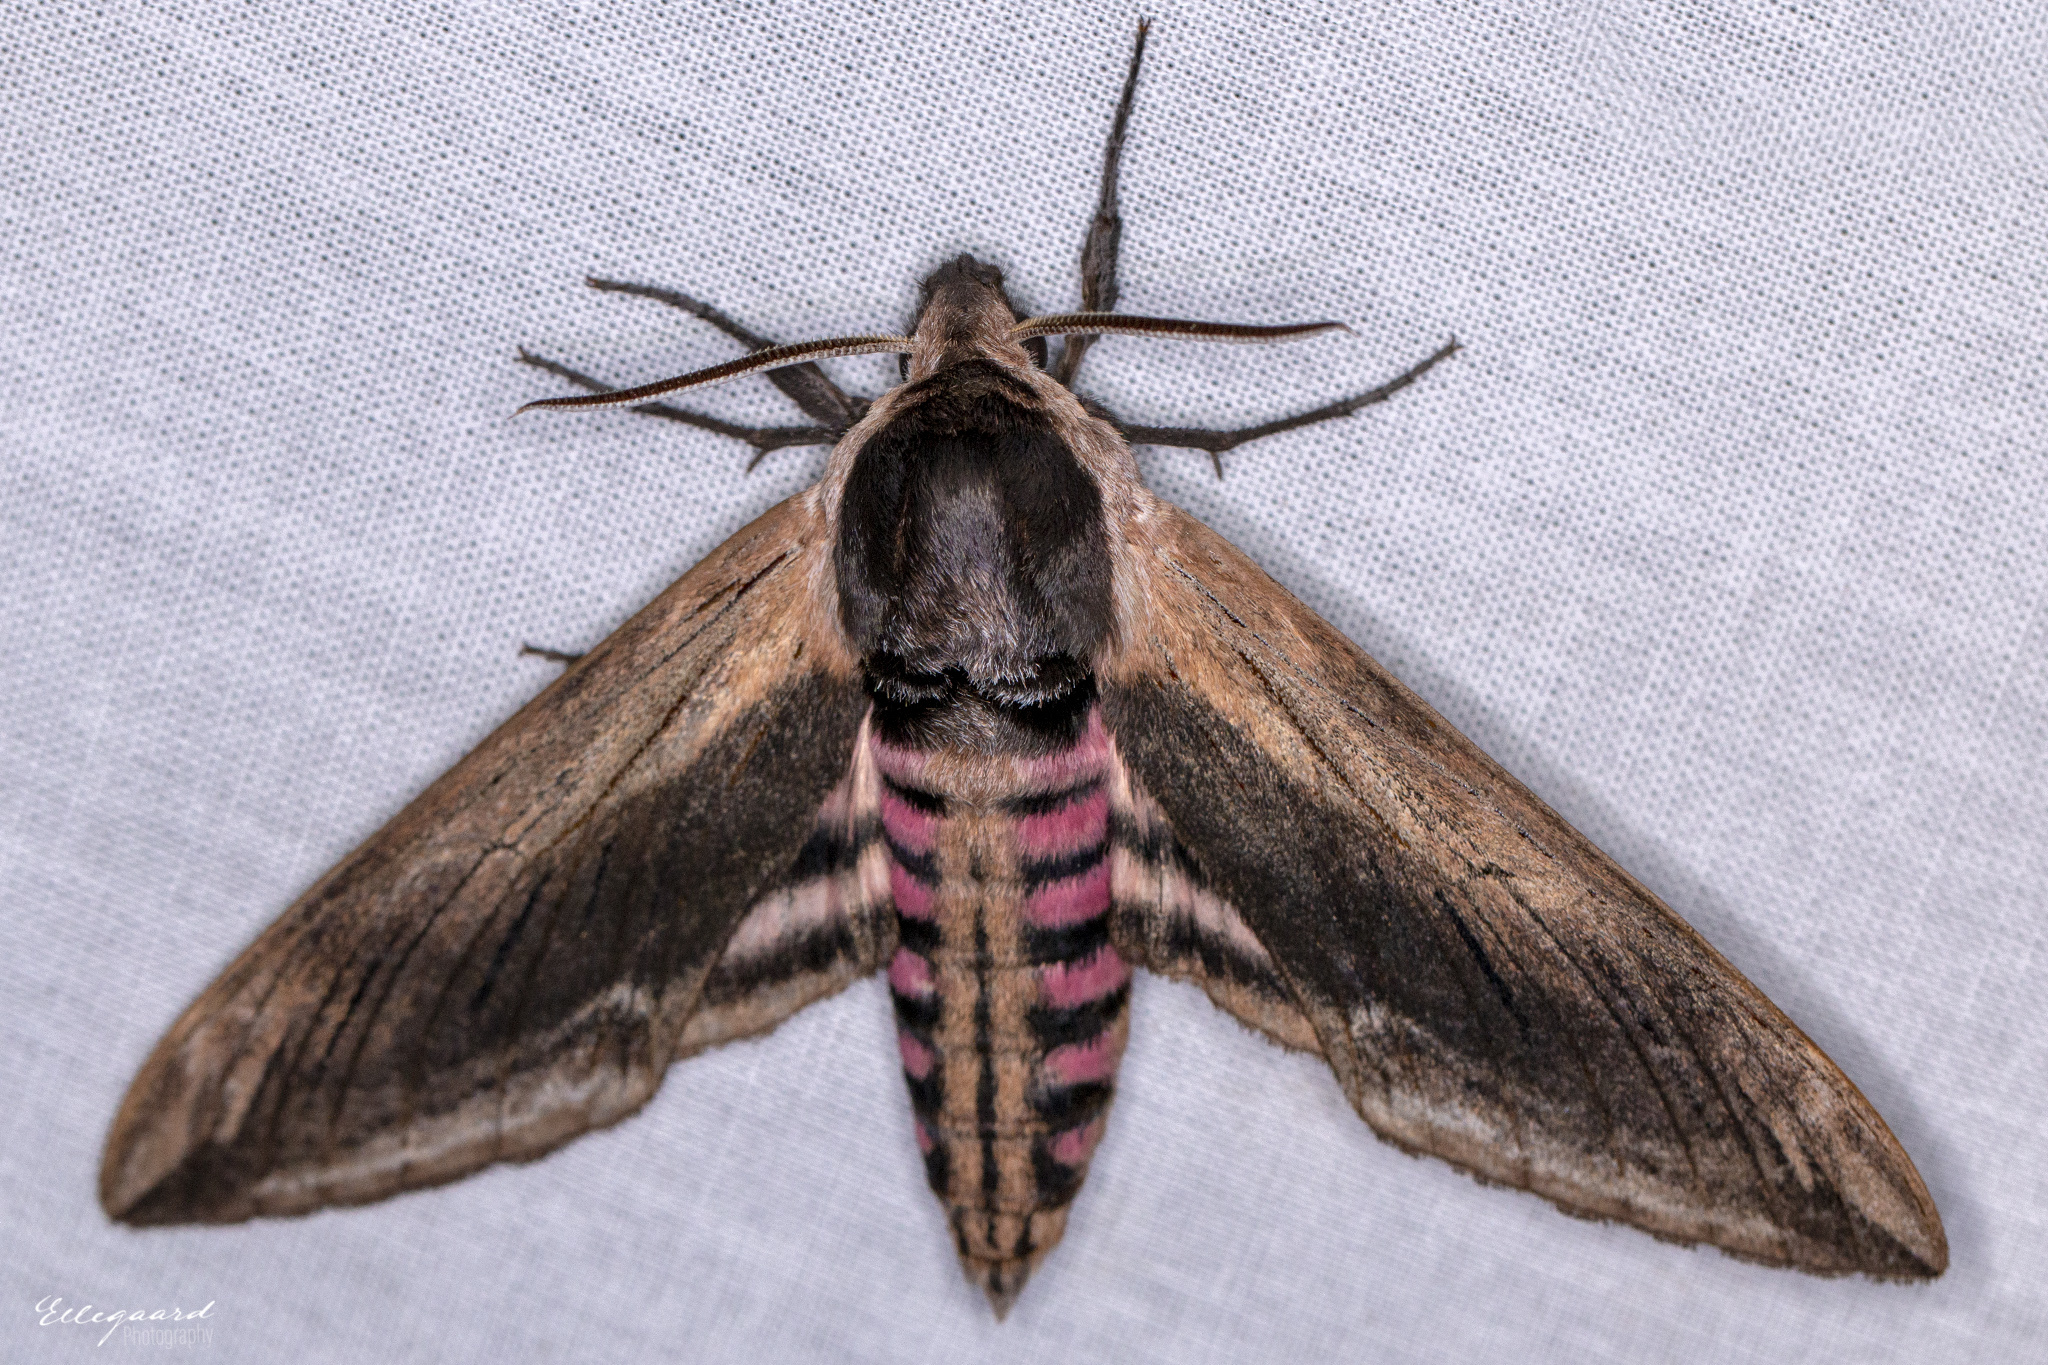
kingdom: Animalia
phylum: Arthropoda
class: Insecta
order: Lepidoptera
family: Sphingidae
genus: Sphinx
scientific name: Sphinx ligustri
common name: Privet hawk-moth
